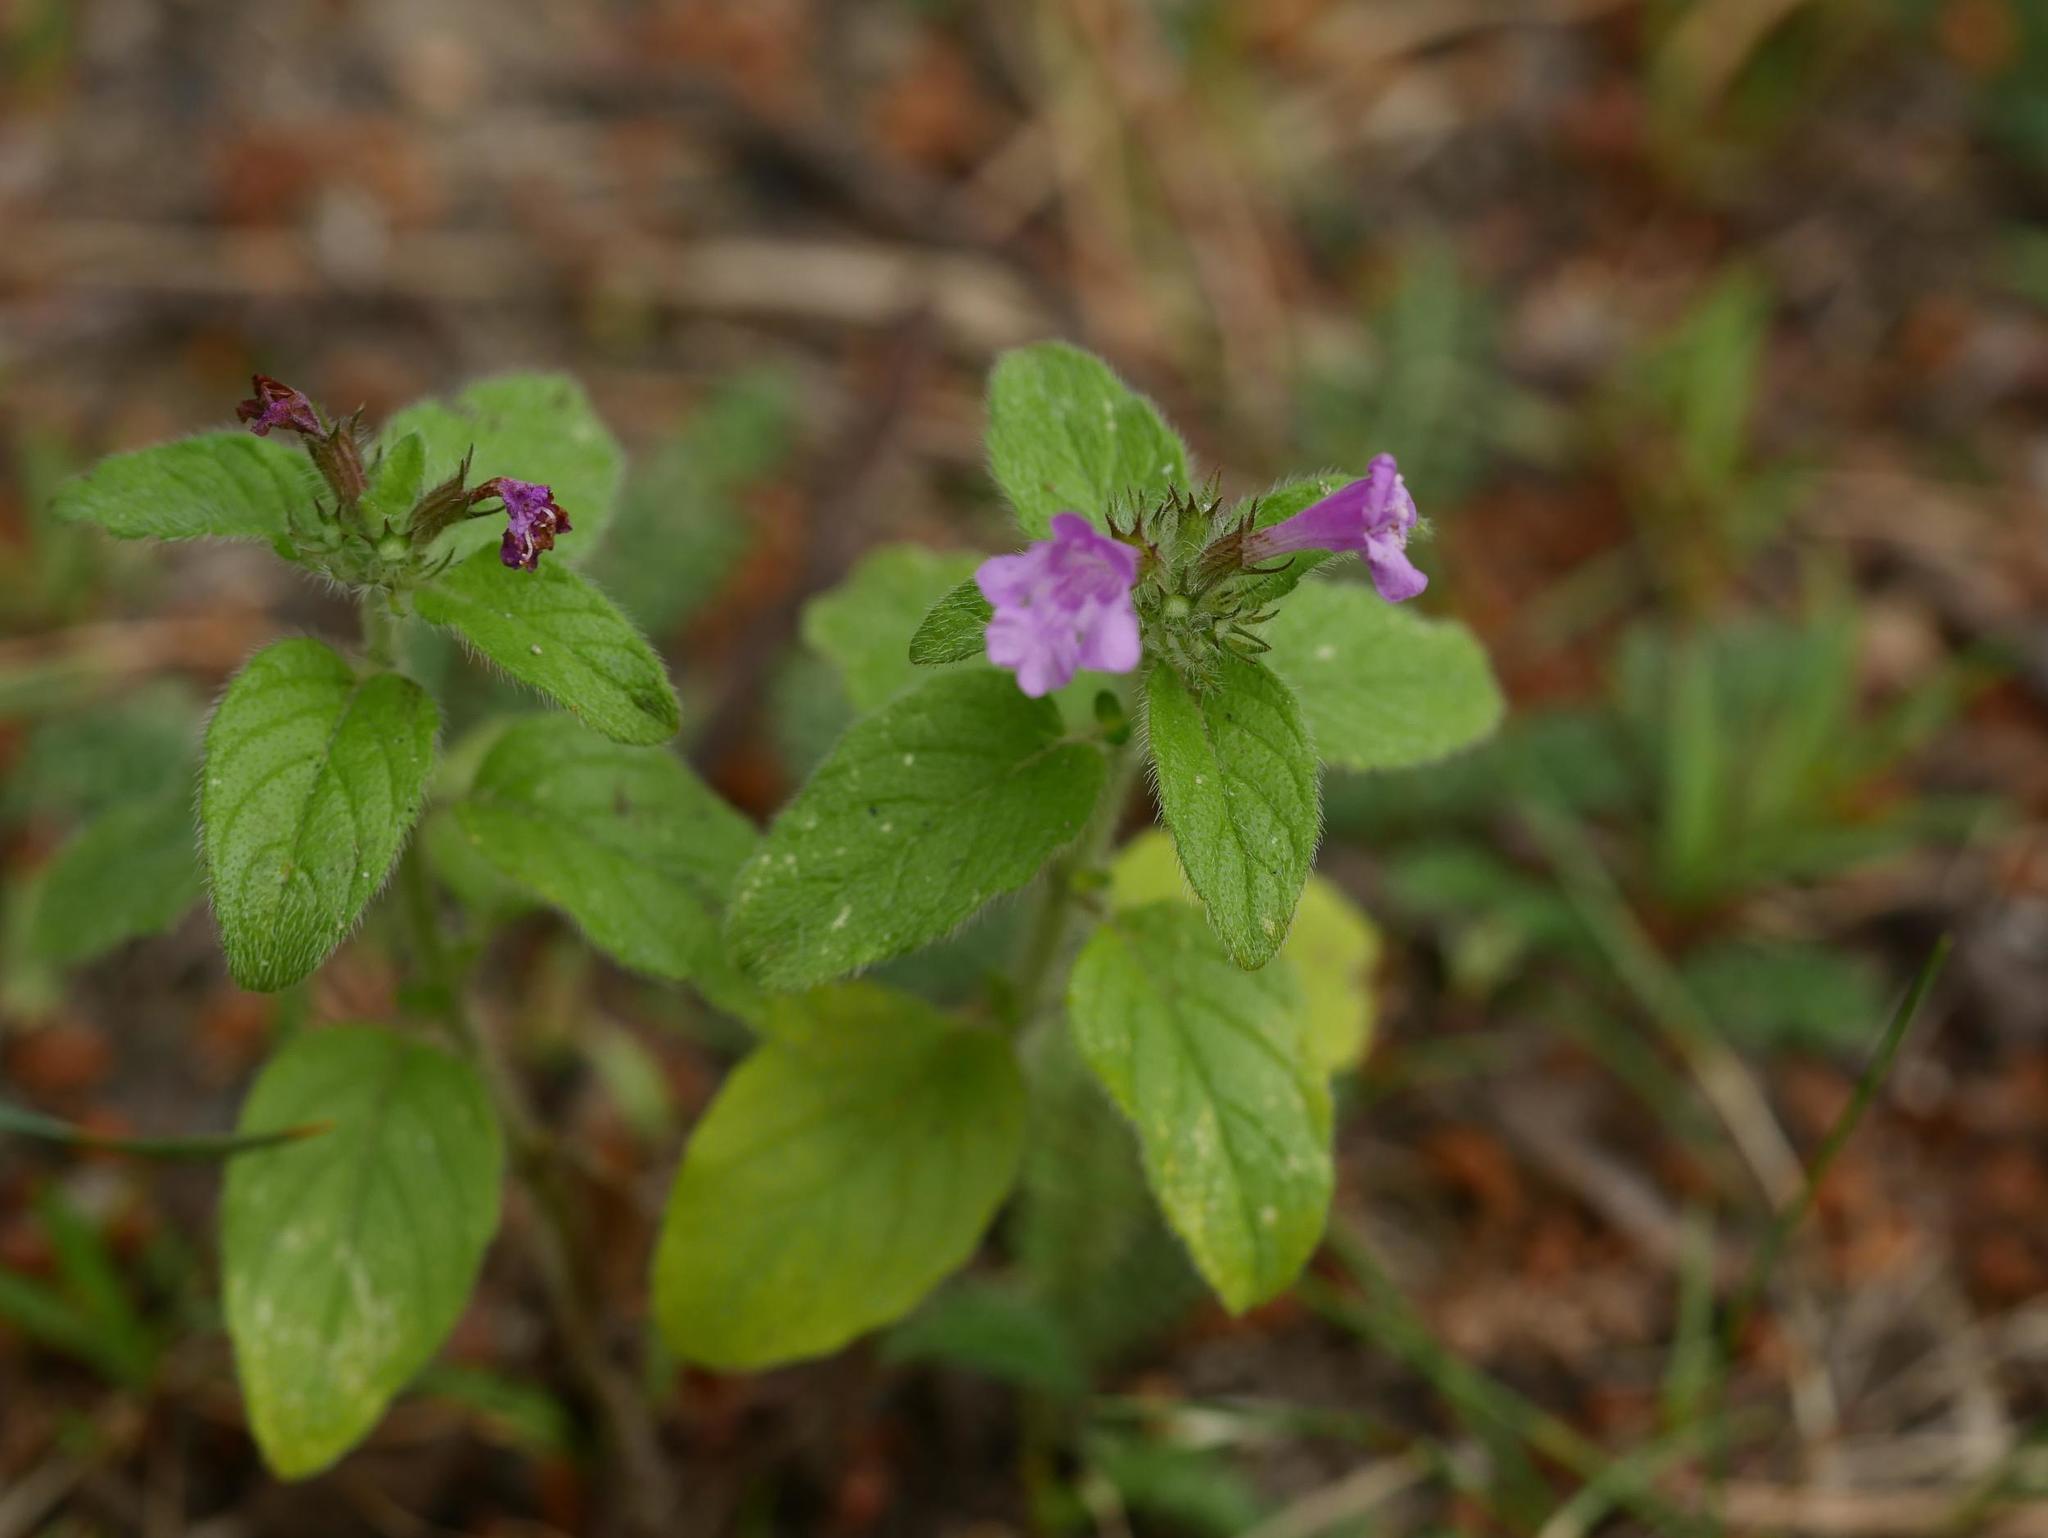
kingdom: Plantae
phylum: Tracheophyta
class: Magnoliopsida
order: Lamiales
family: Lamiaceae
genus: Clinopodium
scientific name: Clinopodium vulgare
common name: Wild basil
